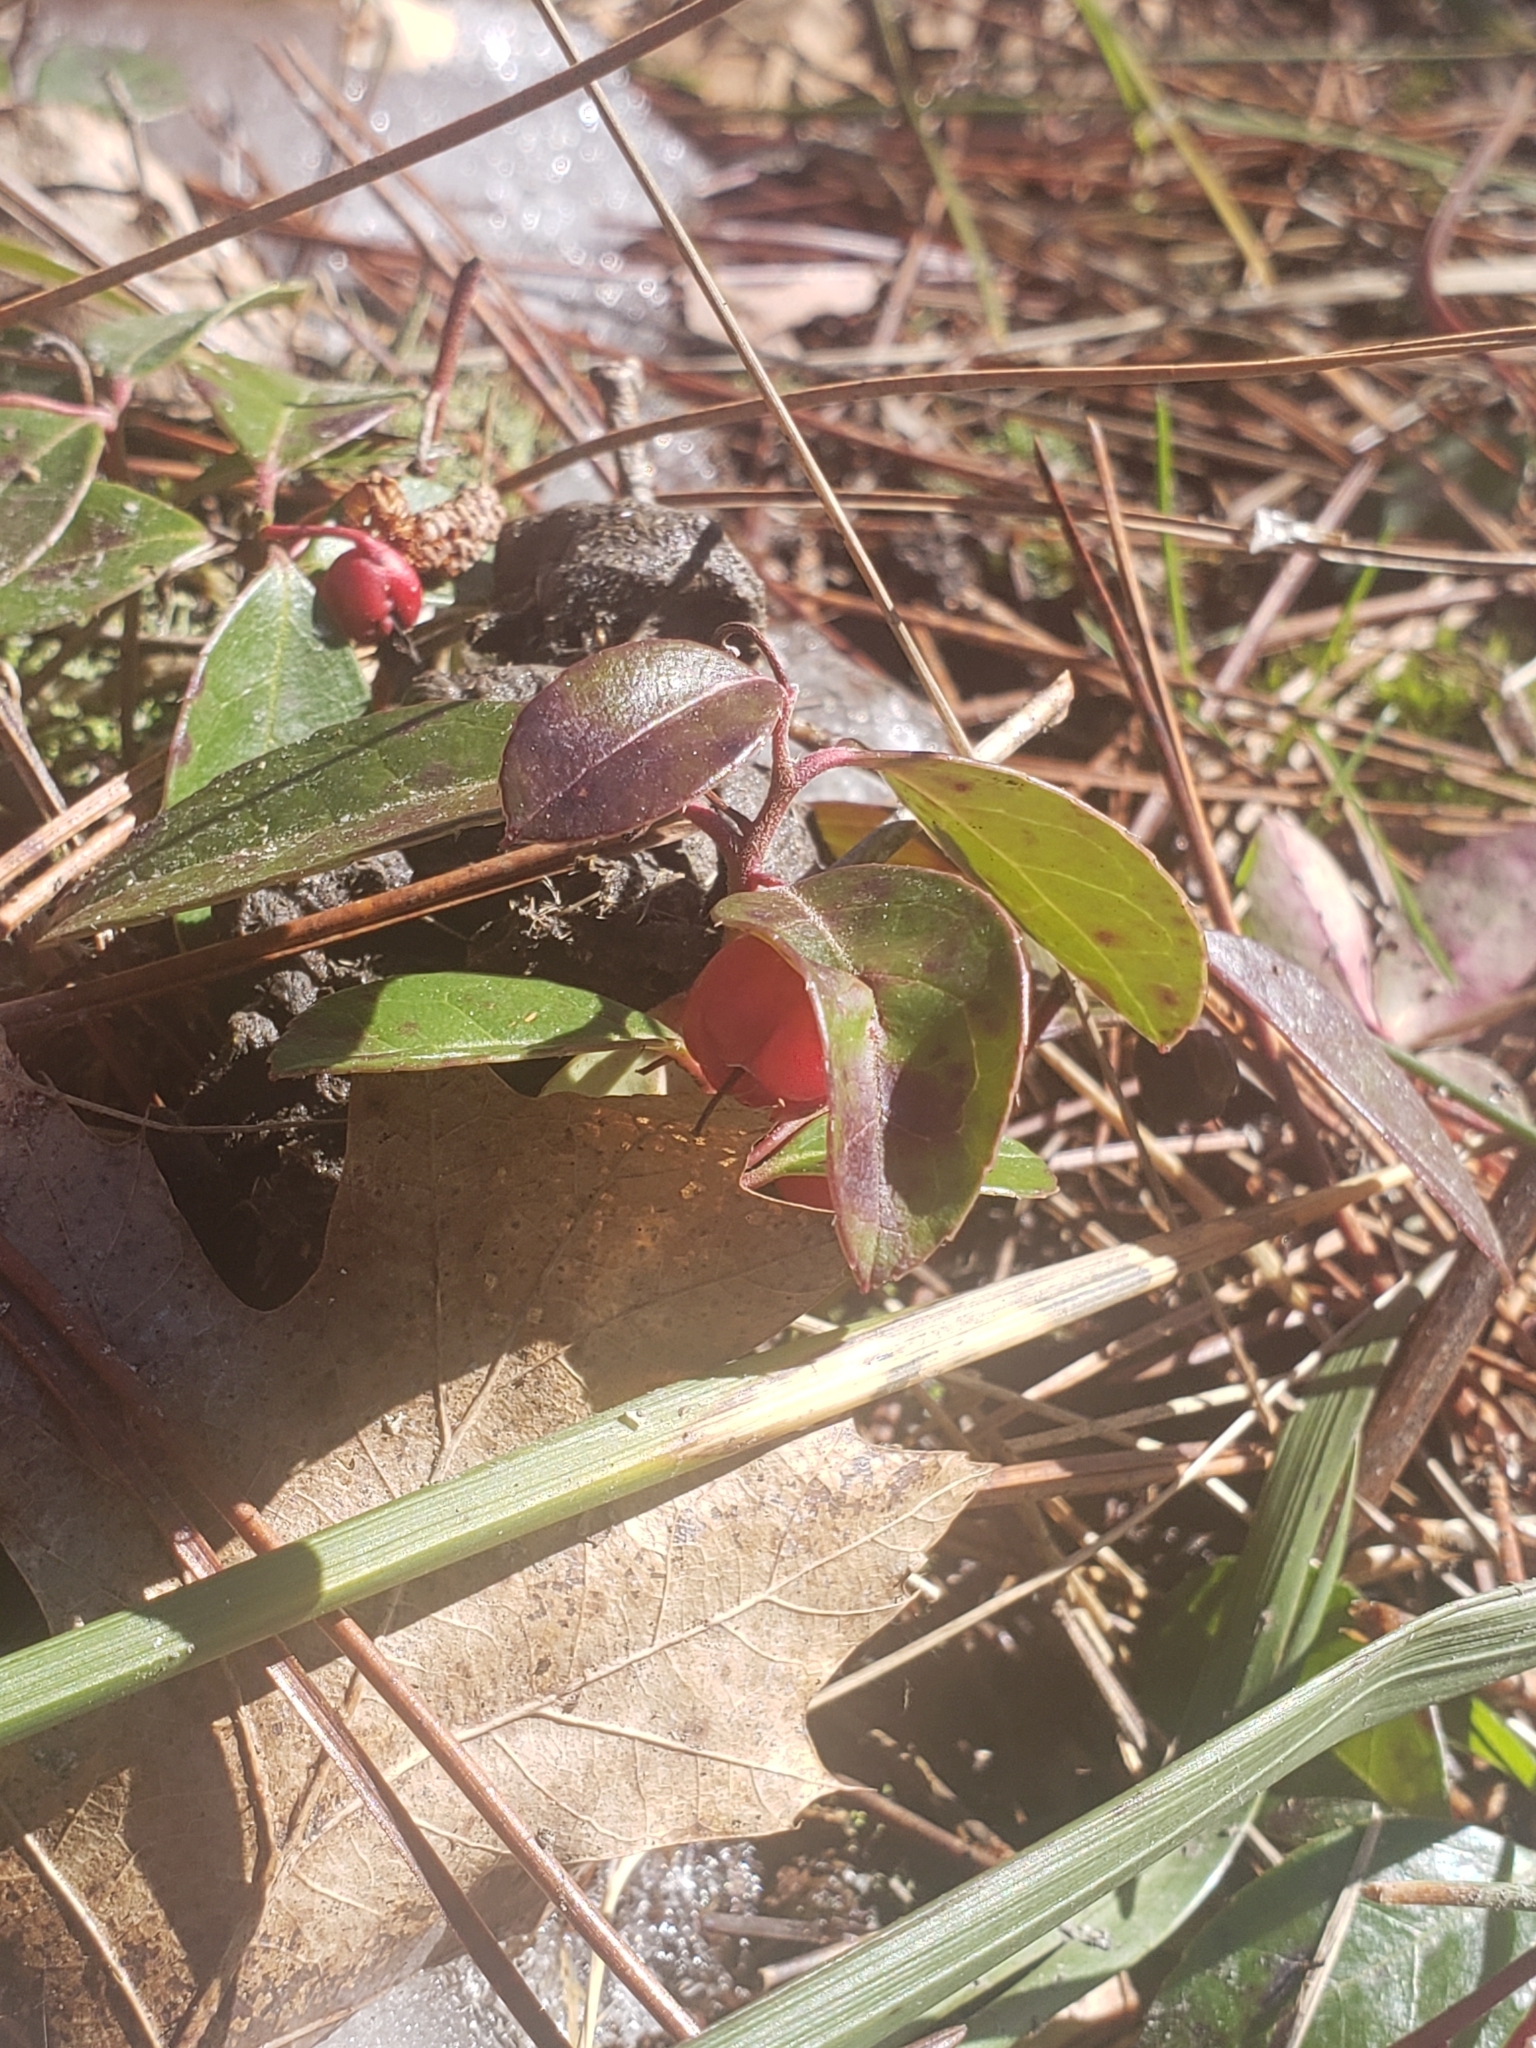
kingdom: Plantae
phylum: Tracheophyta
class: Magnoliopsida
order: Ericales
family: Ericaceae
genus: Gaultheria
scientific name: Gaultheria procumbens
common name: Checkerberry
